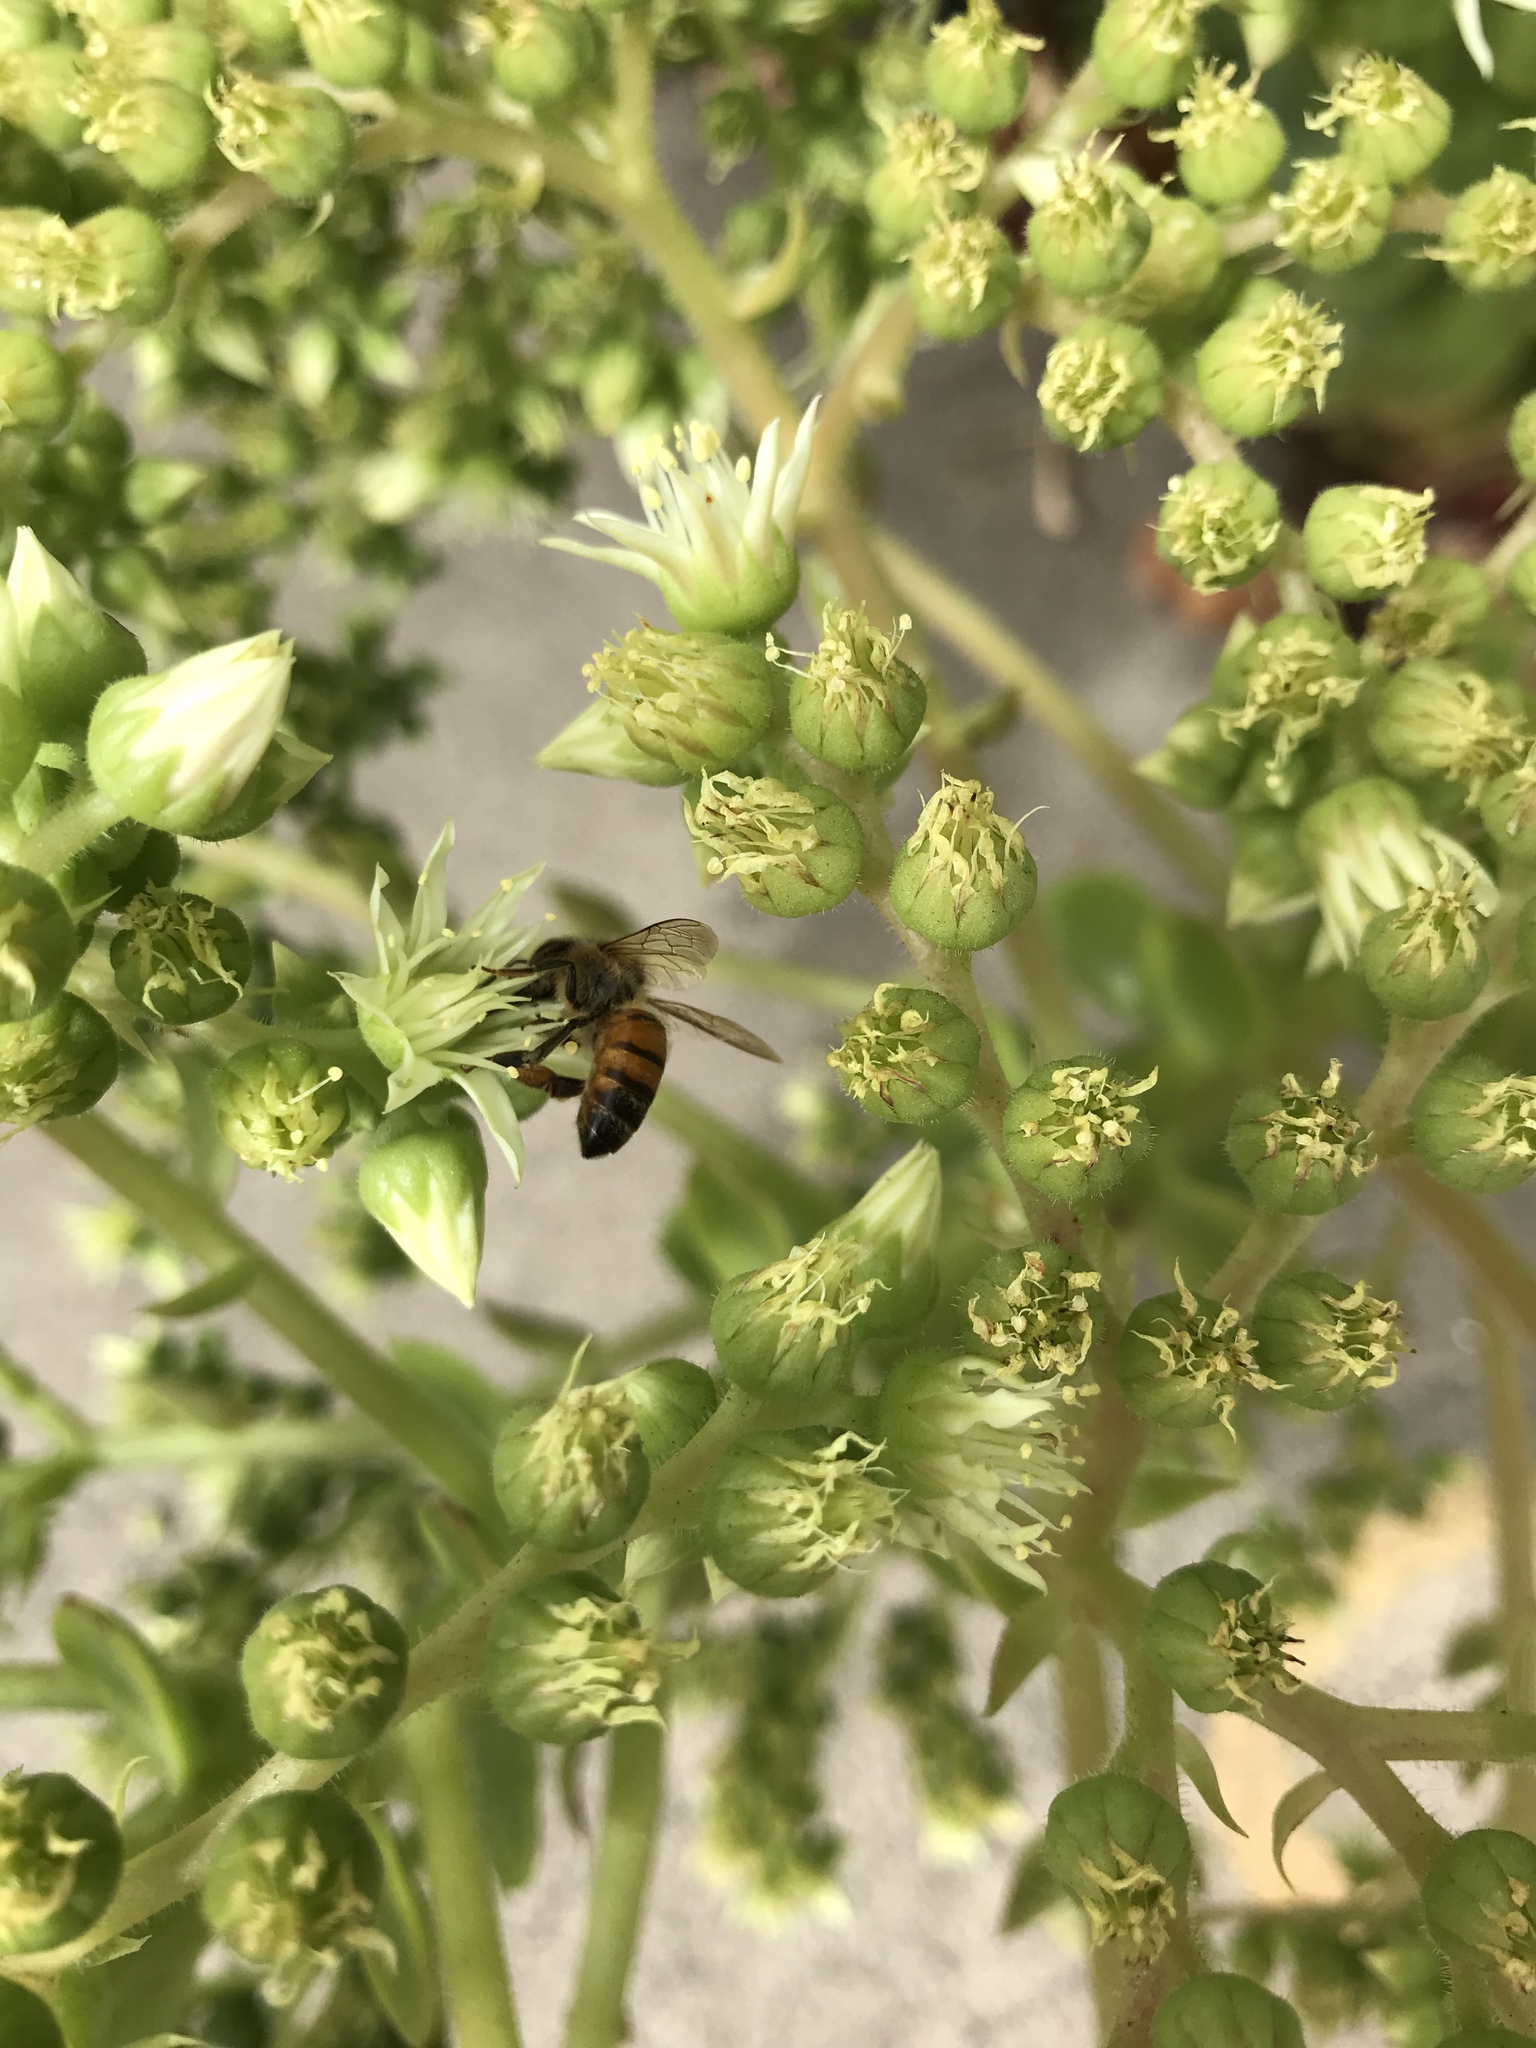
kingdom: Animalia
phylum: Arthropoda
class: Insecta
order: Hymenoptera
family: Apidae
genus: Apis
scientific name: Apis mellifera
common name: Honey bee
